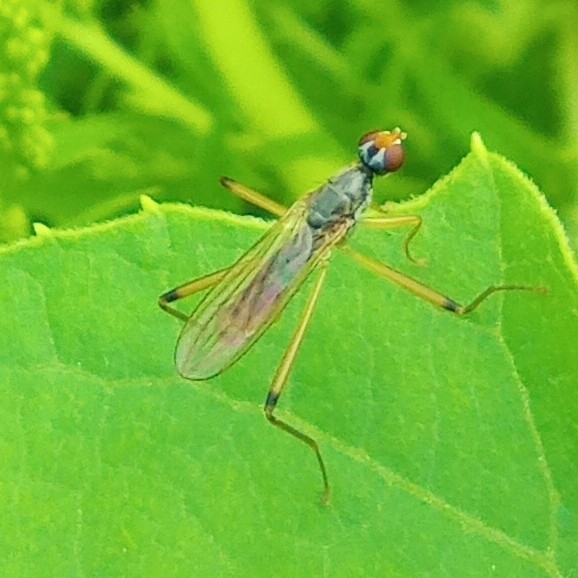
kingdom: Animalia
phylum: Arthropoda
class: Insecta
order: Diptera
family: Micropezidae
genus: Compsobata
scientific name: Compsobata cibaria
